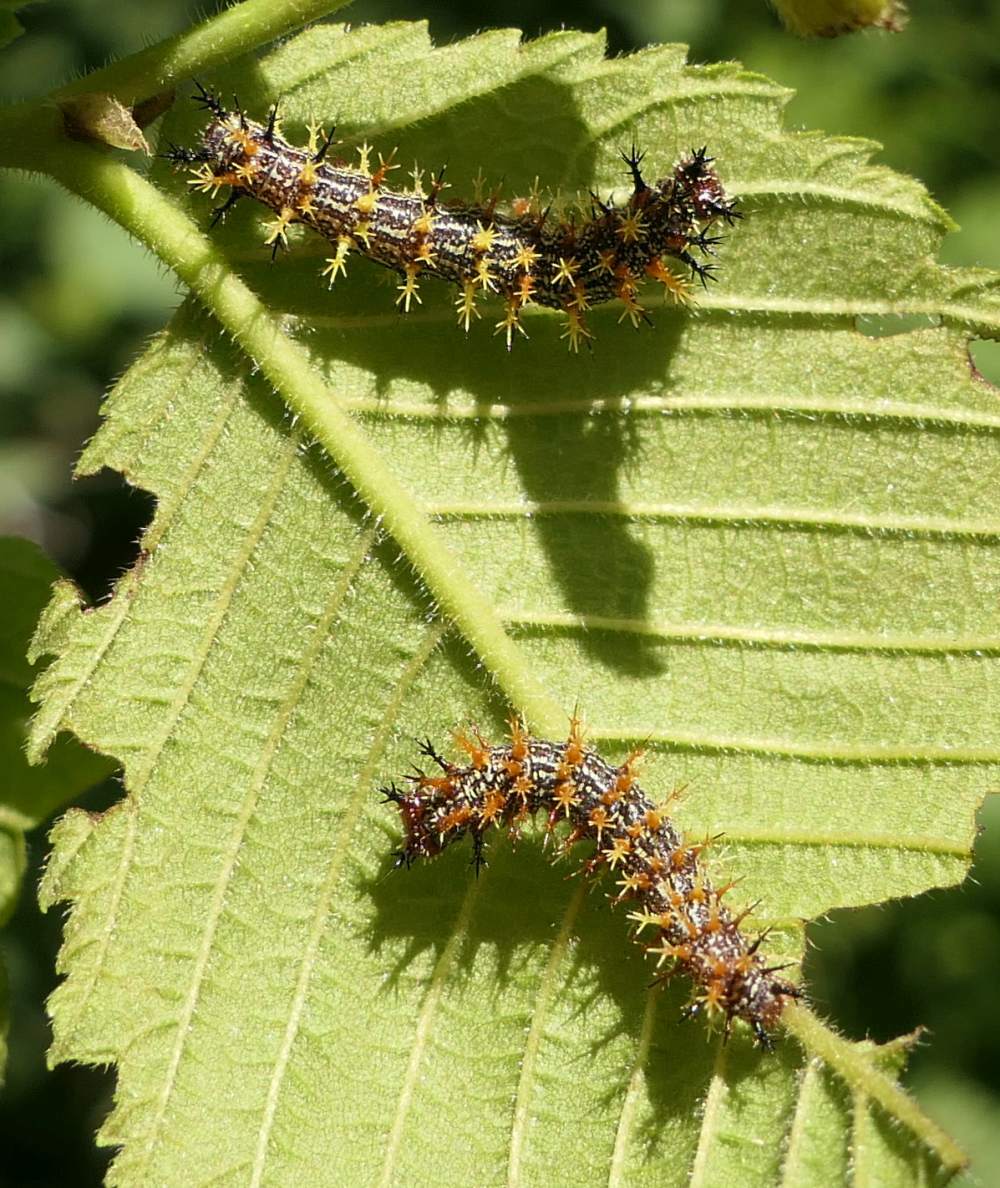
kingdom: Animalia
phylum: Arthropoda
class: Insecta
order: Lepidoptera
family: Nymphalidae
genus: Polygonia
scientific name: Polygonia interrogationis
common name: Question mark
